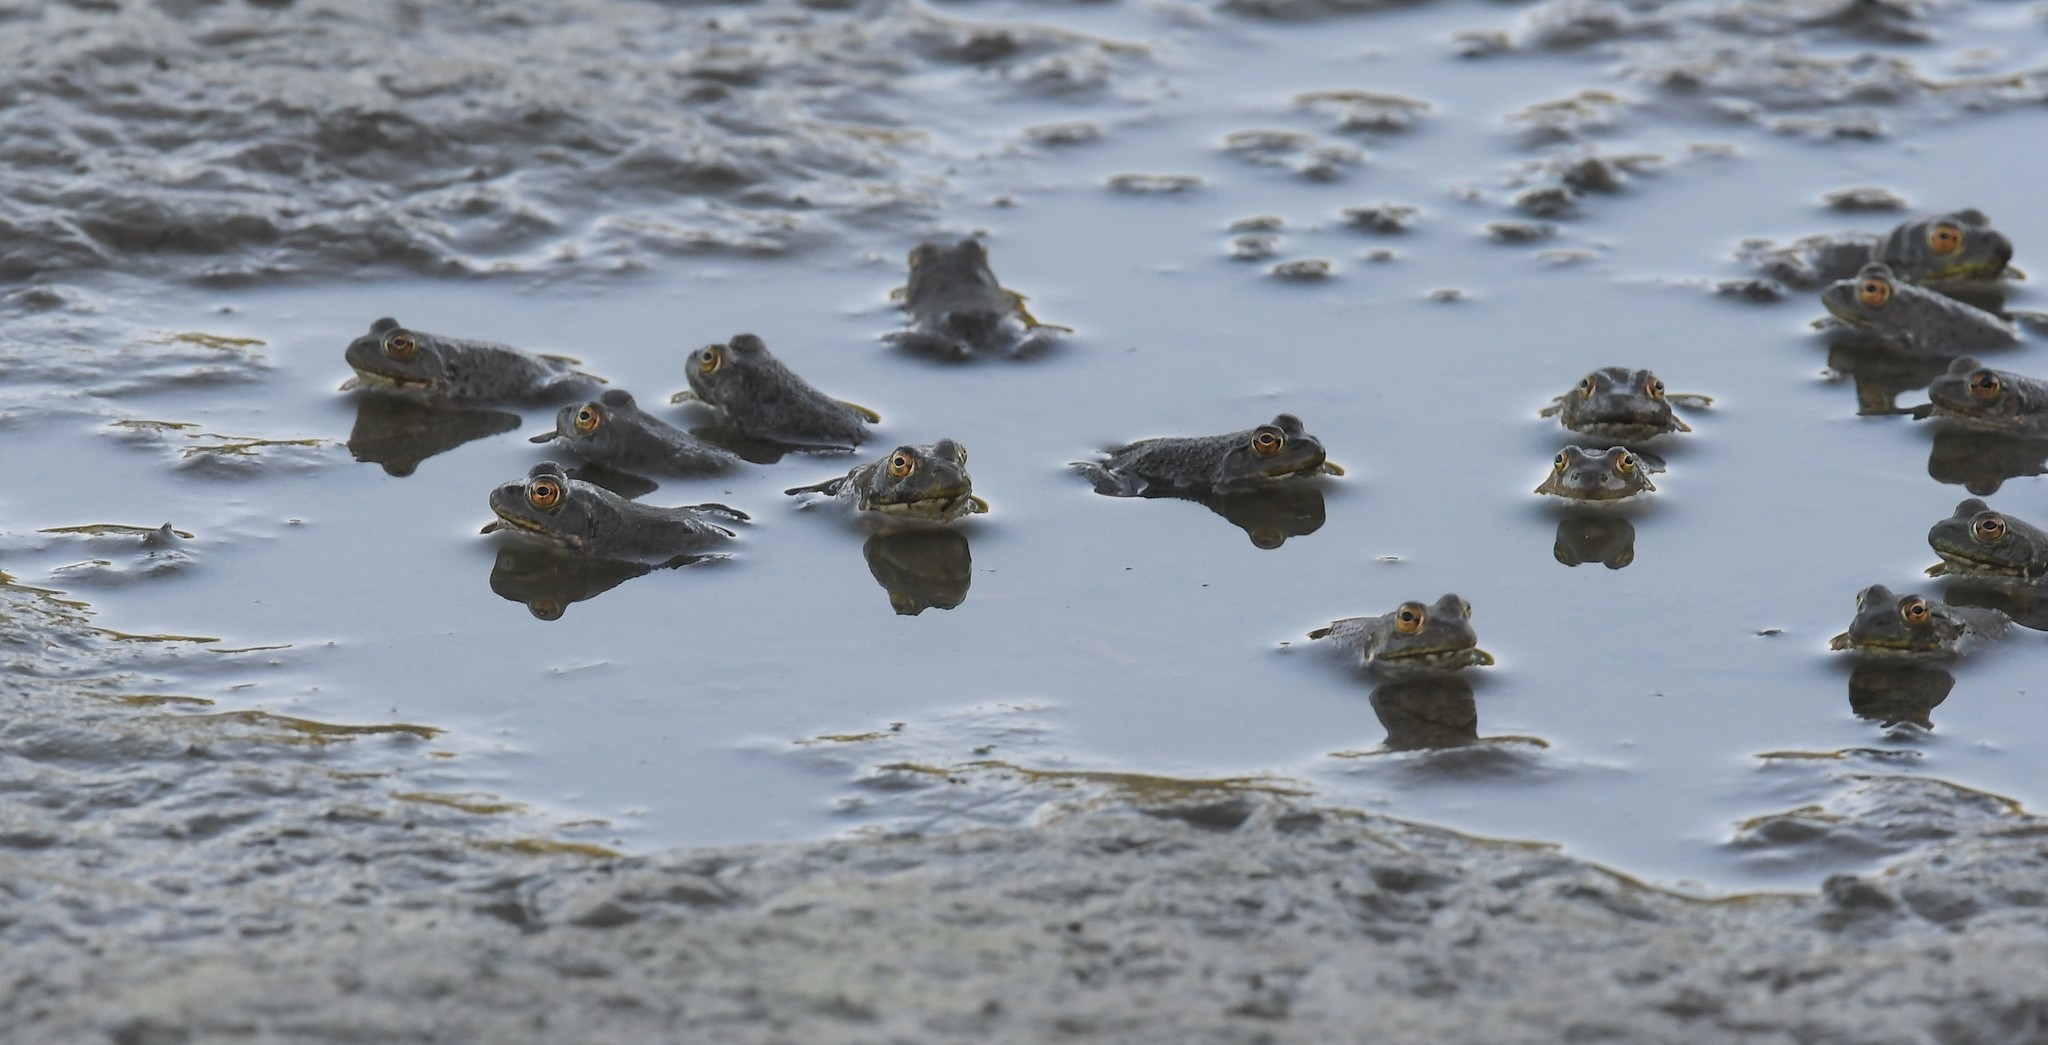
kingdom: Animalia
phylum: Chordata
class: Amphibia
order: Anura
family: Ranidae
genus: Lithobates
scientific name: Lithobates catesbeianus
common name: American bullfrog
